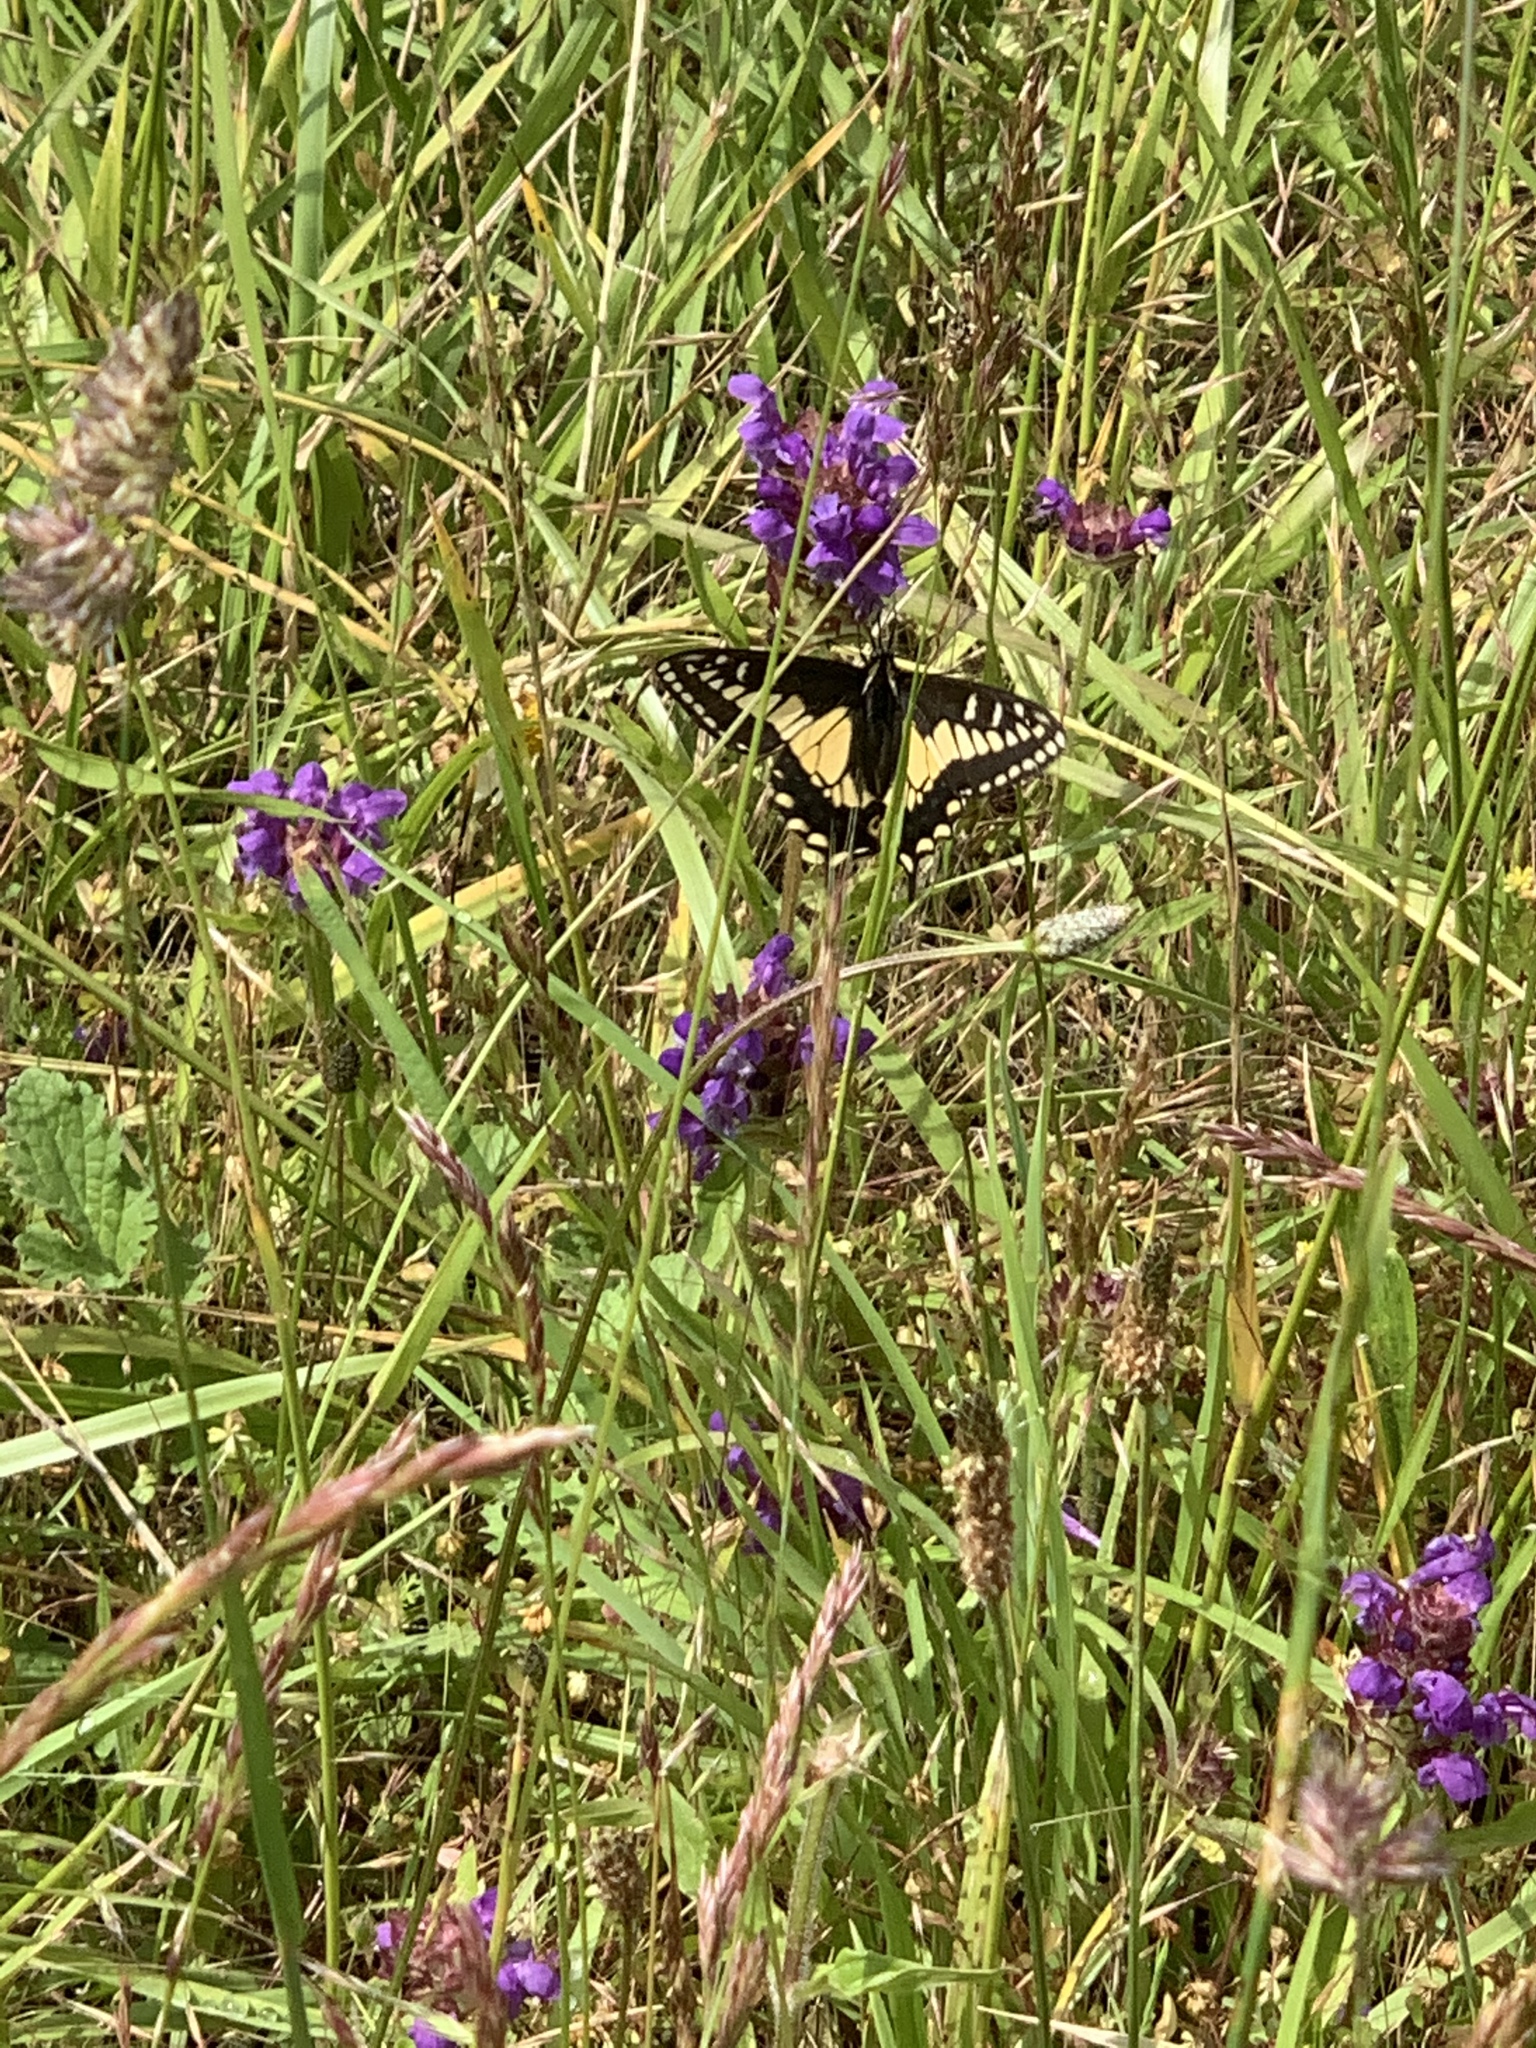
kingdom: Animalia
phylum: Arthropoda
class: Insecta
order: Lepidoptera
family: Papilionidae
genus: Papilio
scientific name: Papilio zelicaon
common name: Anise swallowtail
